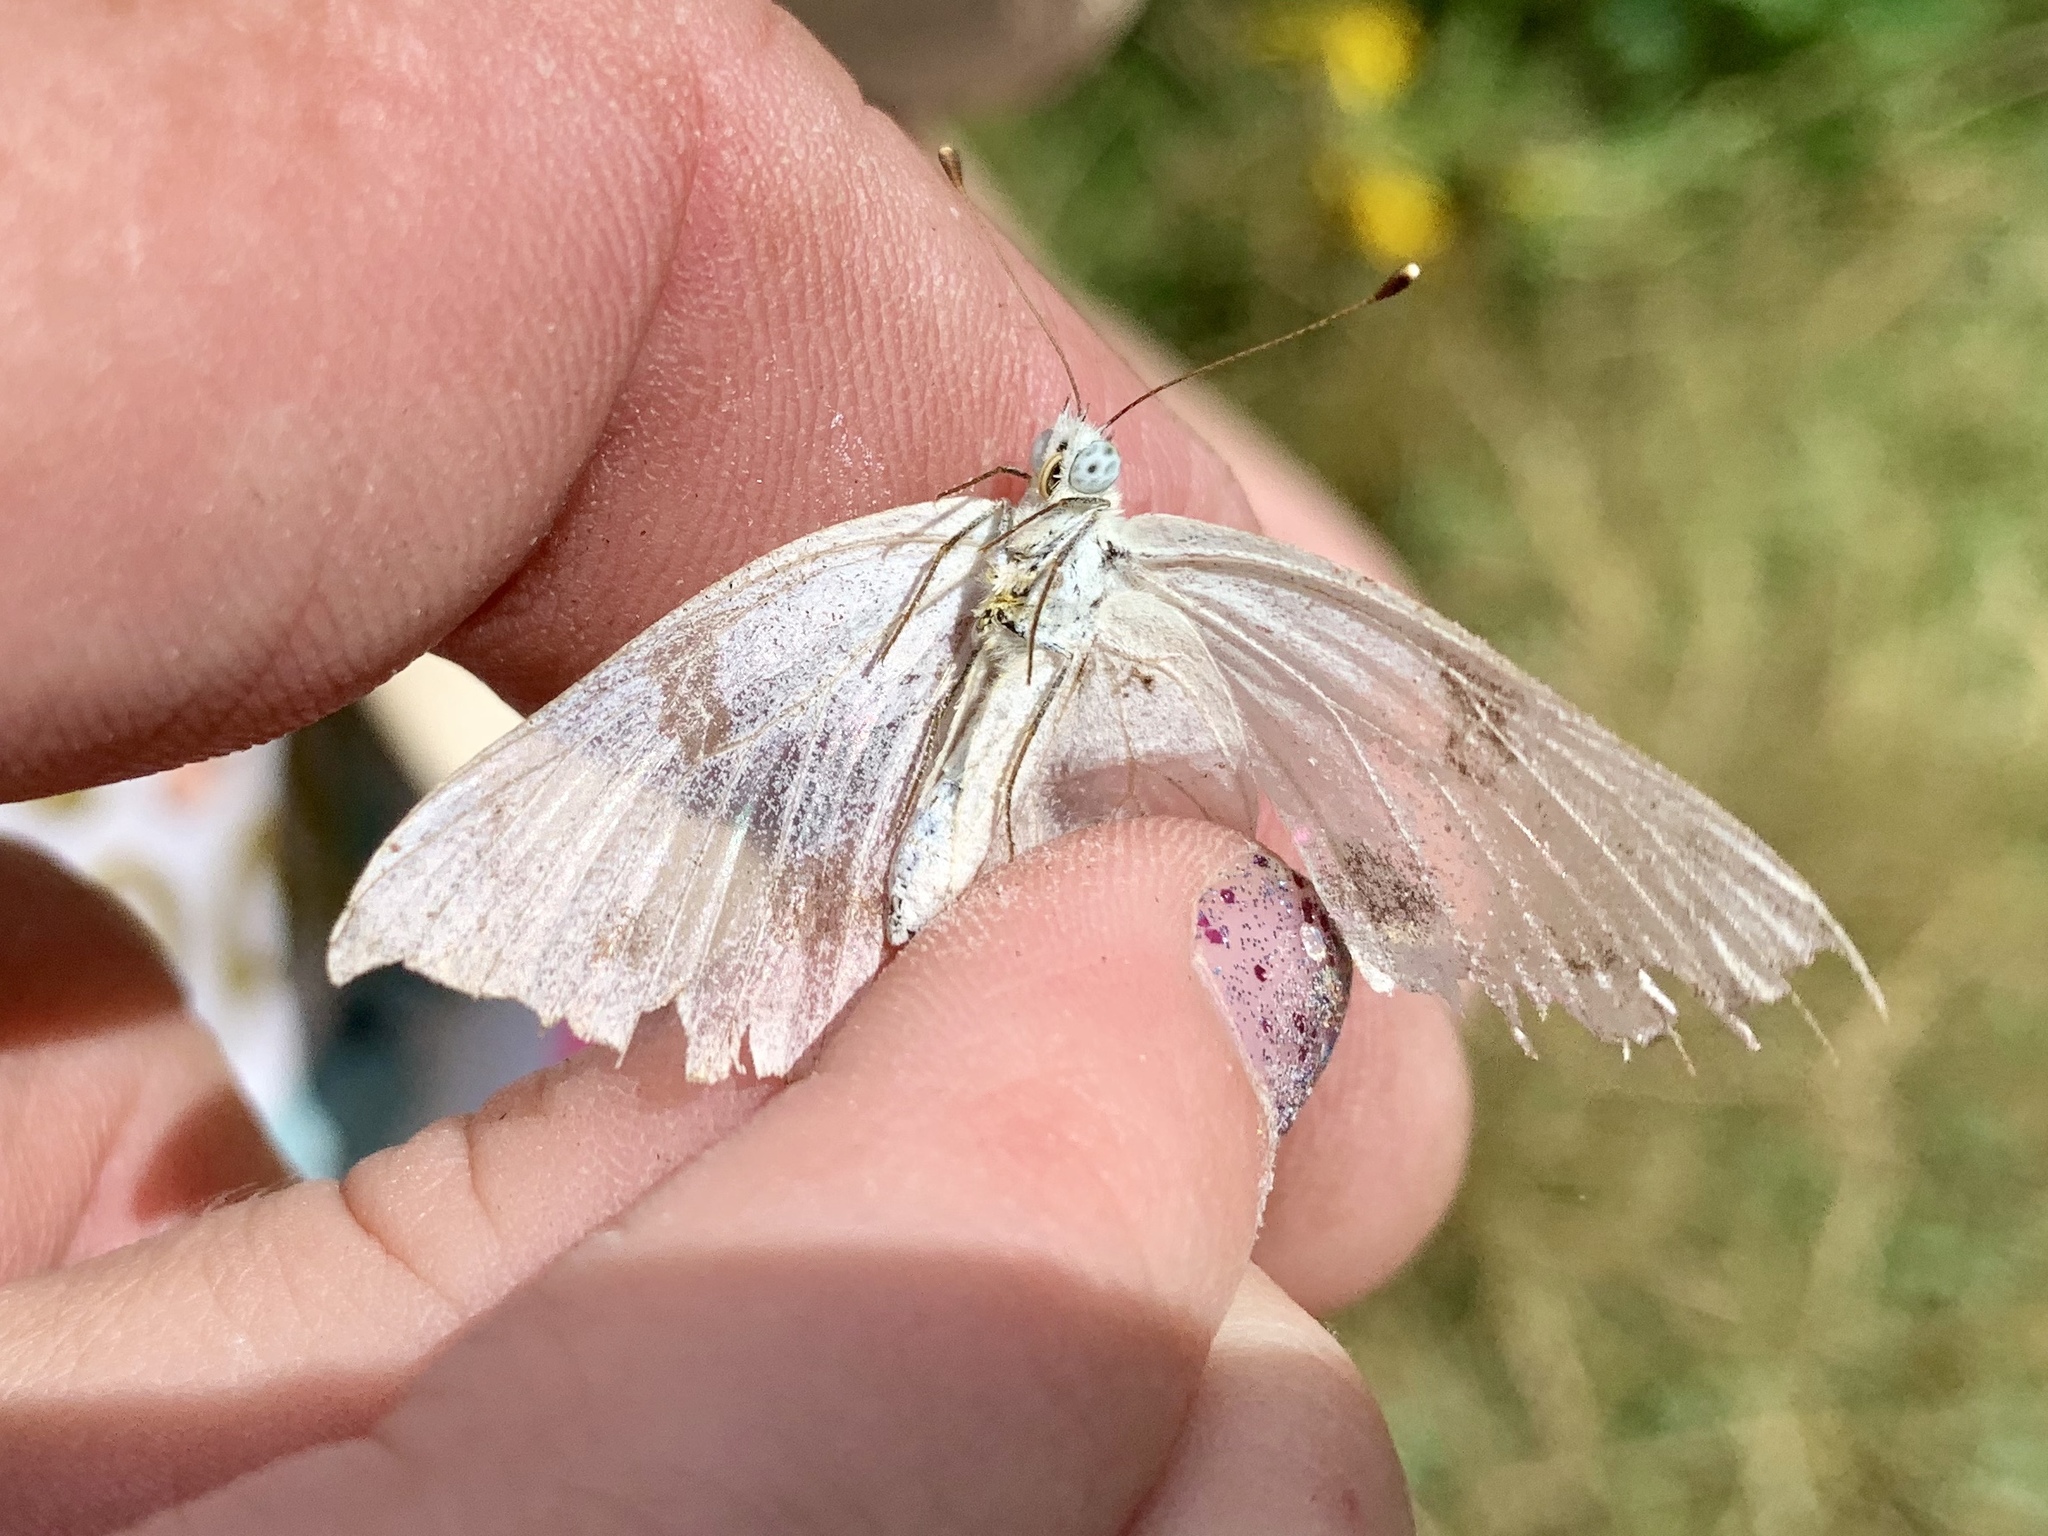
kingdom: Animalia
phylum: Arthropoda
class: Insecta
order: Lepidoptera
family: Pieridae
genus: Pontia
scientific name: Pontia protodice
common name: Checkered white
